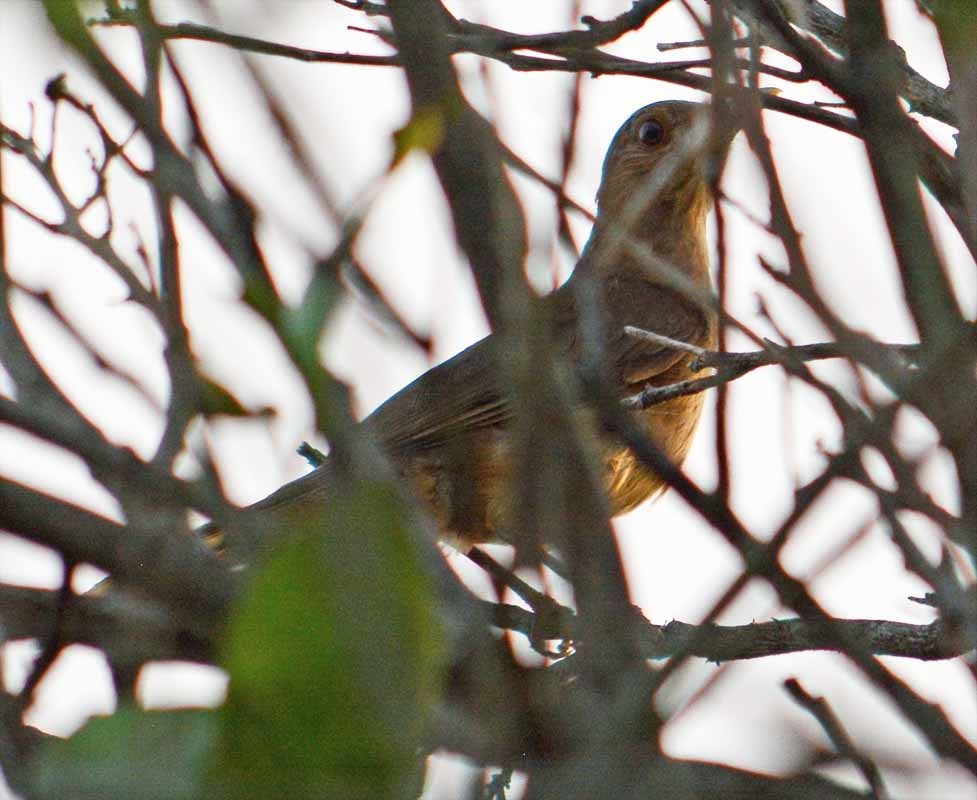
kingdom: Animalia
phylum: Chordata
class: Aves
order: Passeriformes
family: Turdidae
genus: Turdus
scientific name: Turdus grayi
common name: Clay-colored thrush
